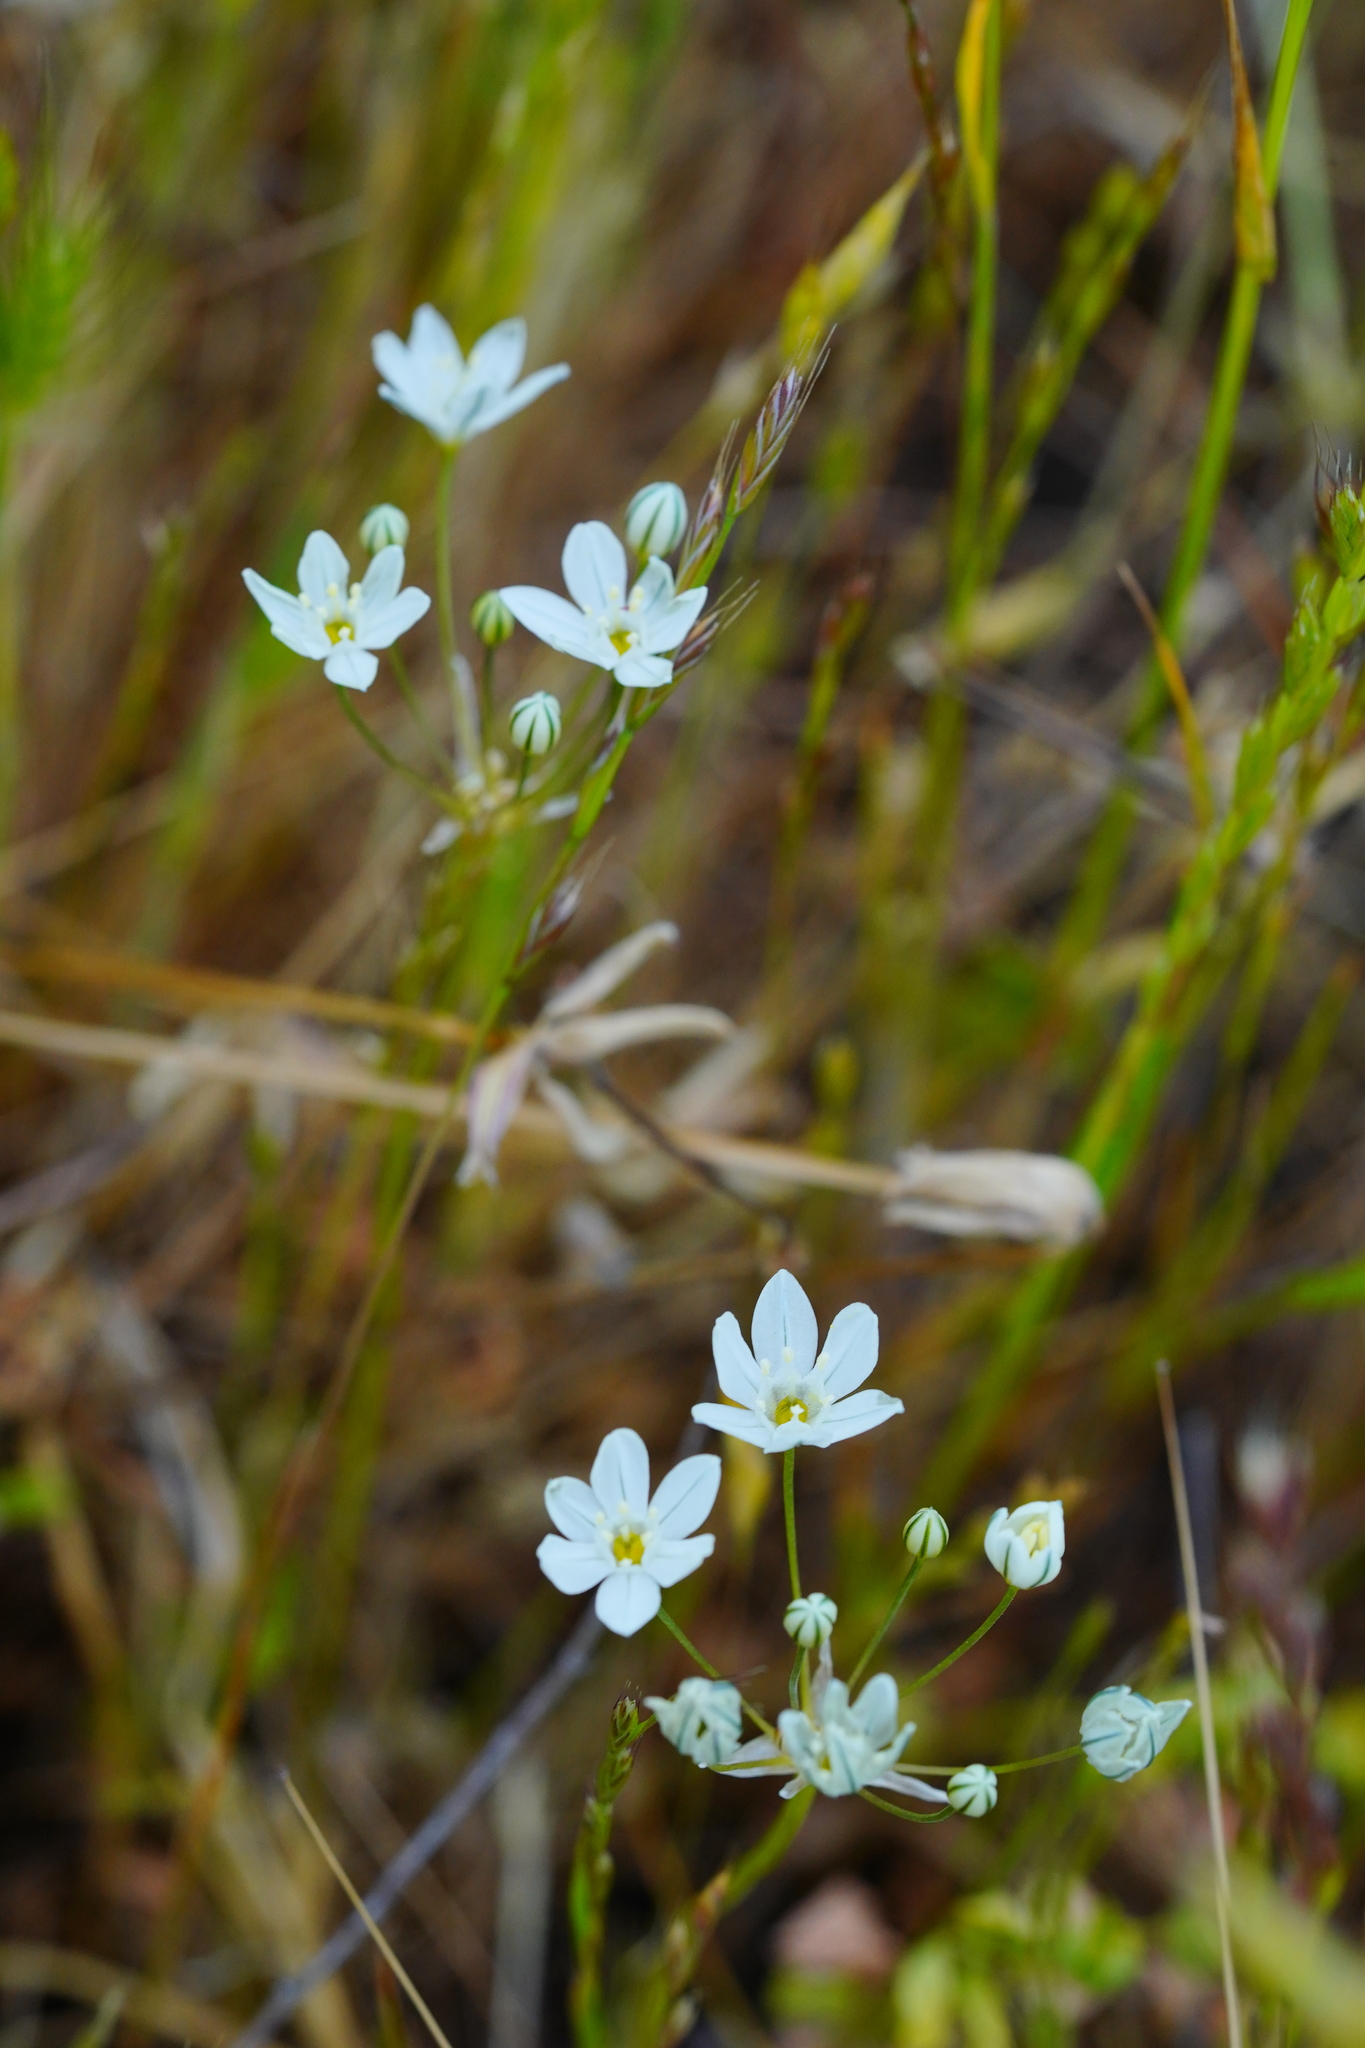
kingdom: Plantae
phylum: Tracheophyta
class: Liliopsida
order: Asparagales
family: Asparagaceae
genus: Triteleia
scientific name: Triteleia hyacinthina
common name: White brodiaea
